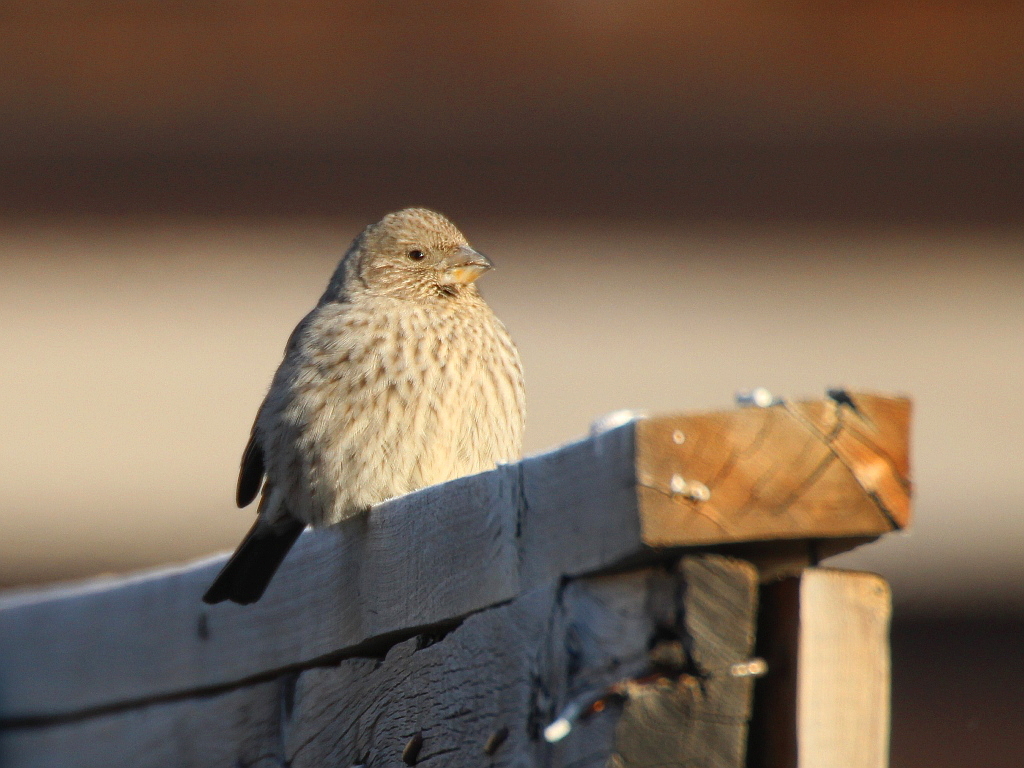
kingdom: Animalia
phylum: Chordata
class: Aves
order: Passeriformes
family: Fringillidae
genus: Carpodacus
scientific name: Carpodacus rubicilla
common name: Great rosefinch
